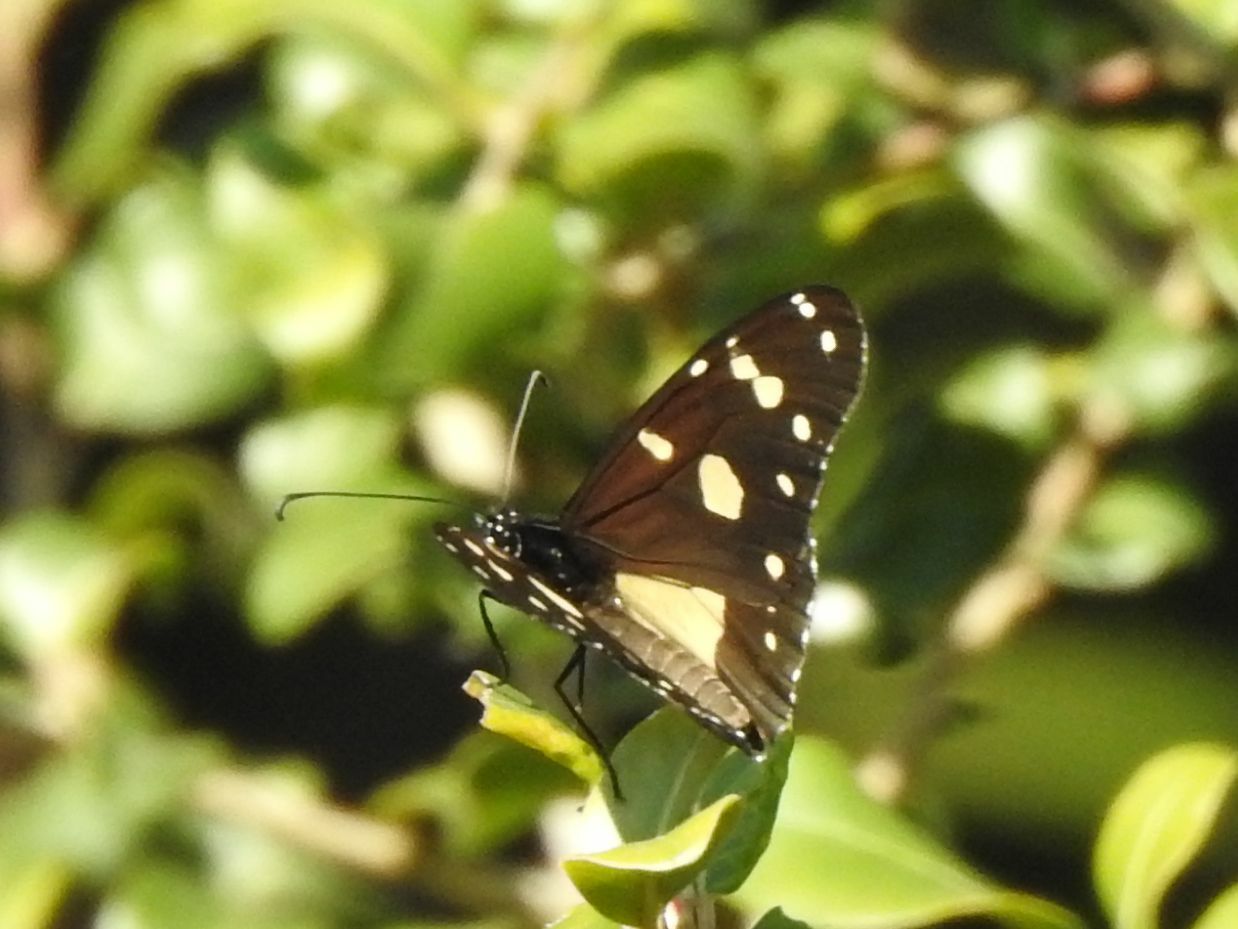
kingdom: Animalia
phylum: Arthropoda
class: Insecta
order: Lepidoptera
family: Nymphalidae
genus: Amauris
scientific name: Amauris echeria
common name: Chief
